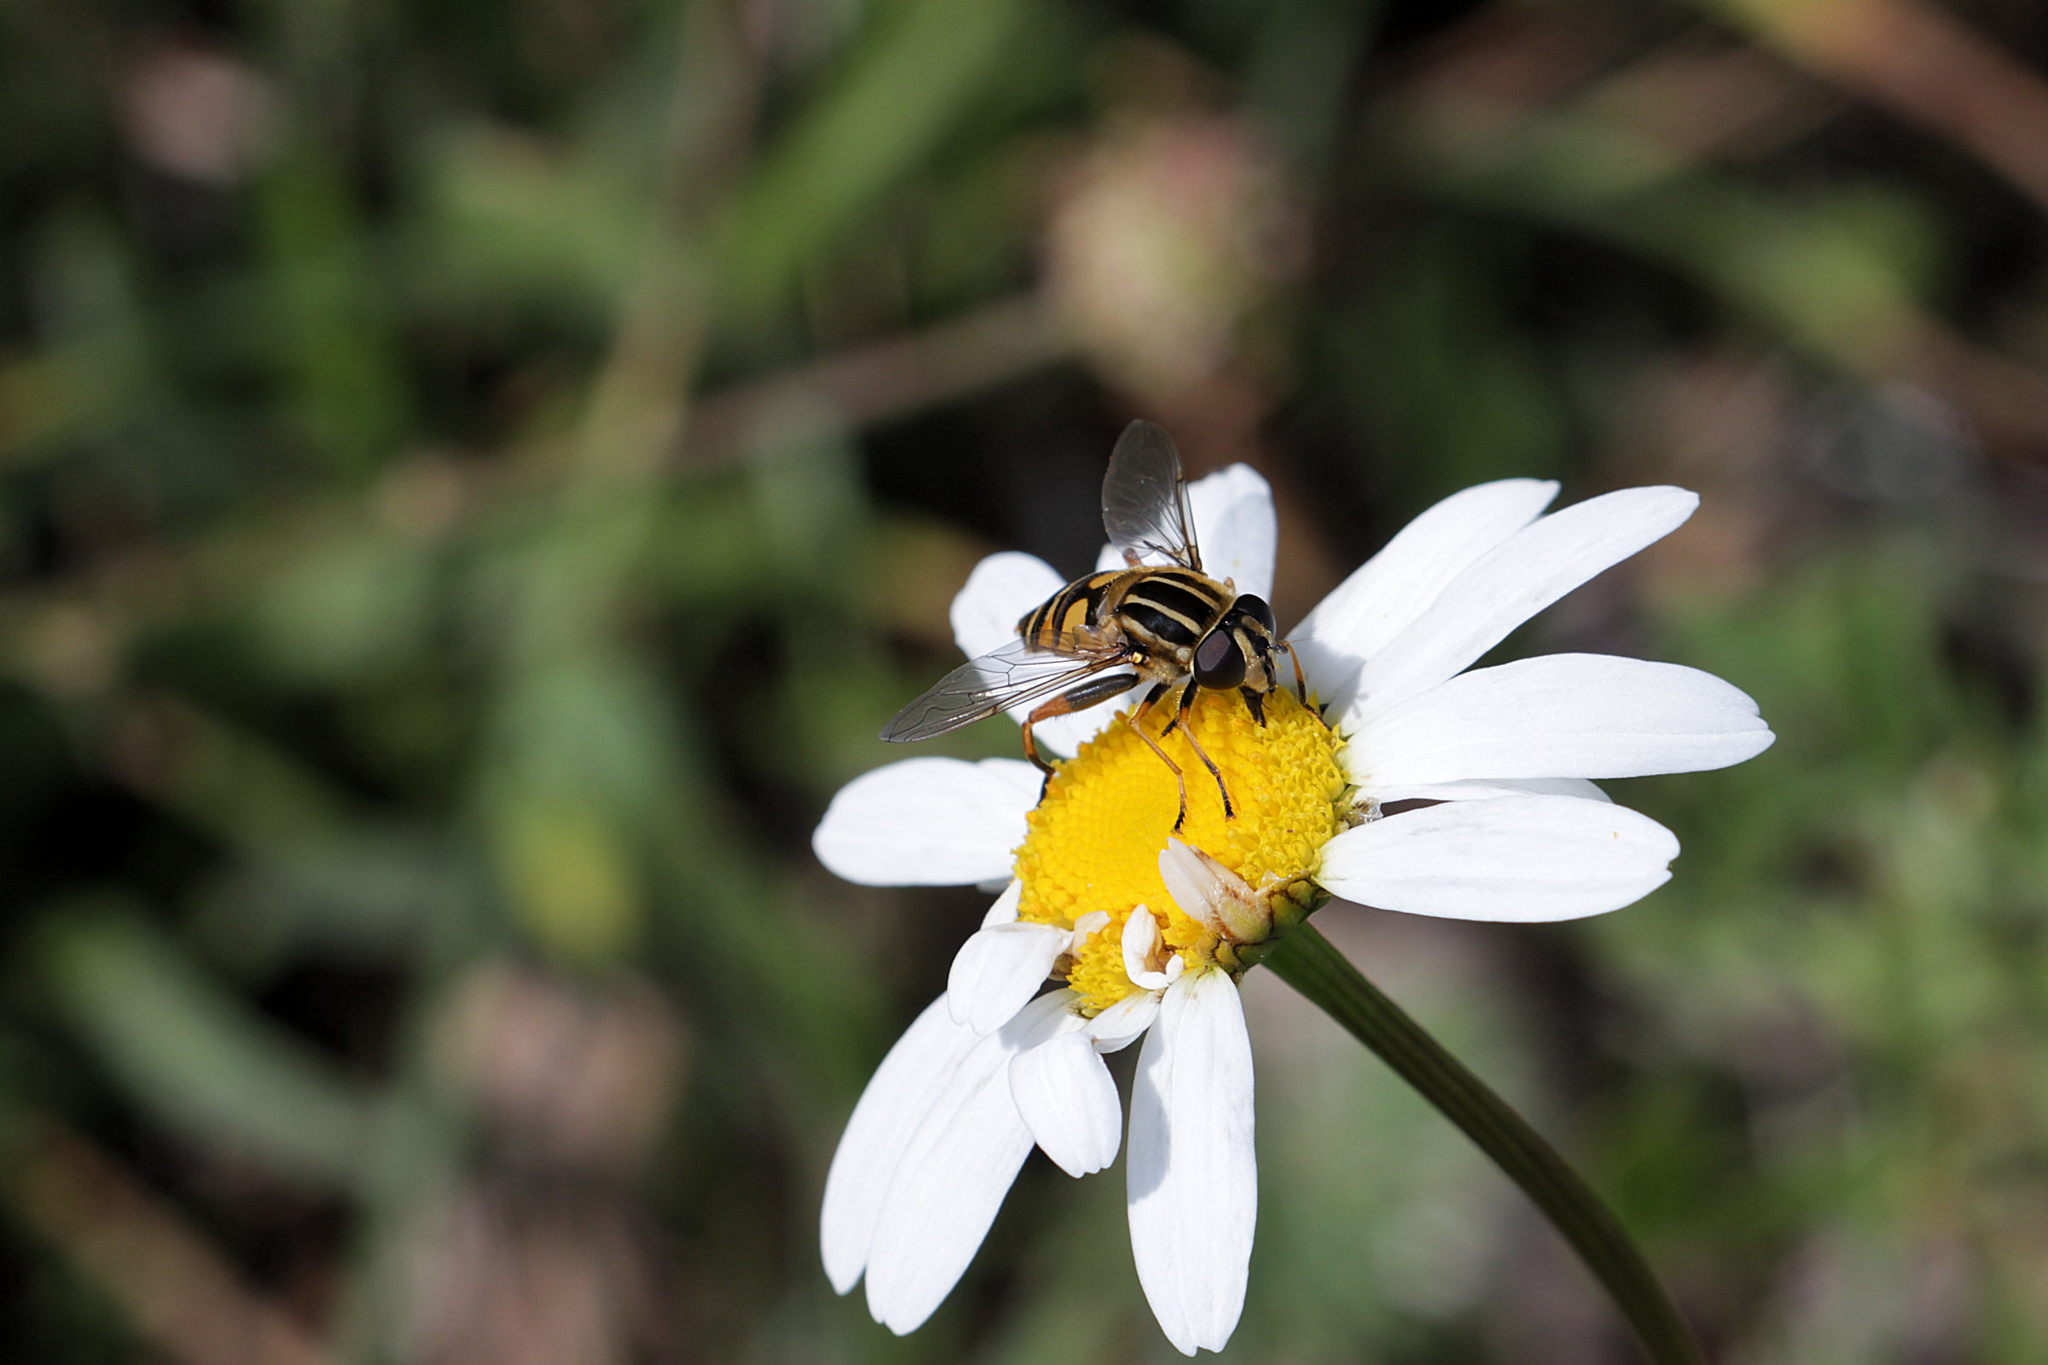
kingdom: Animalia
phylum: Arthropoda
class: Insecta
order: Diptera
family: Syrphidae
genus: Helophilus
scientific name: Helophilus pendulus
